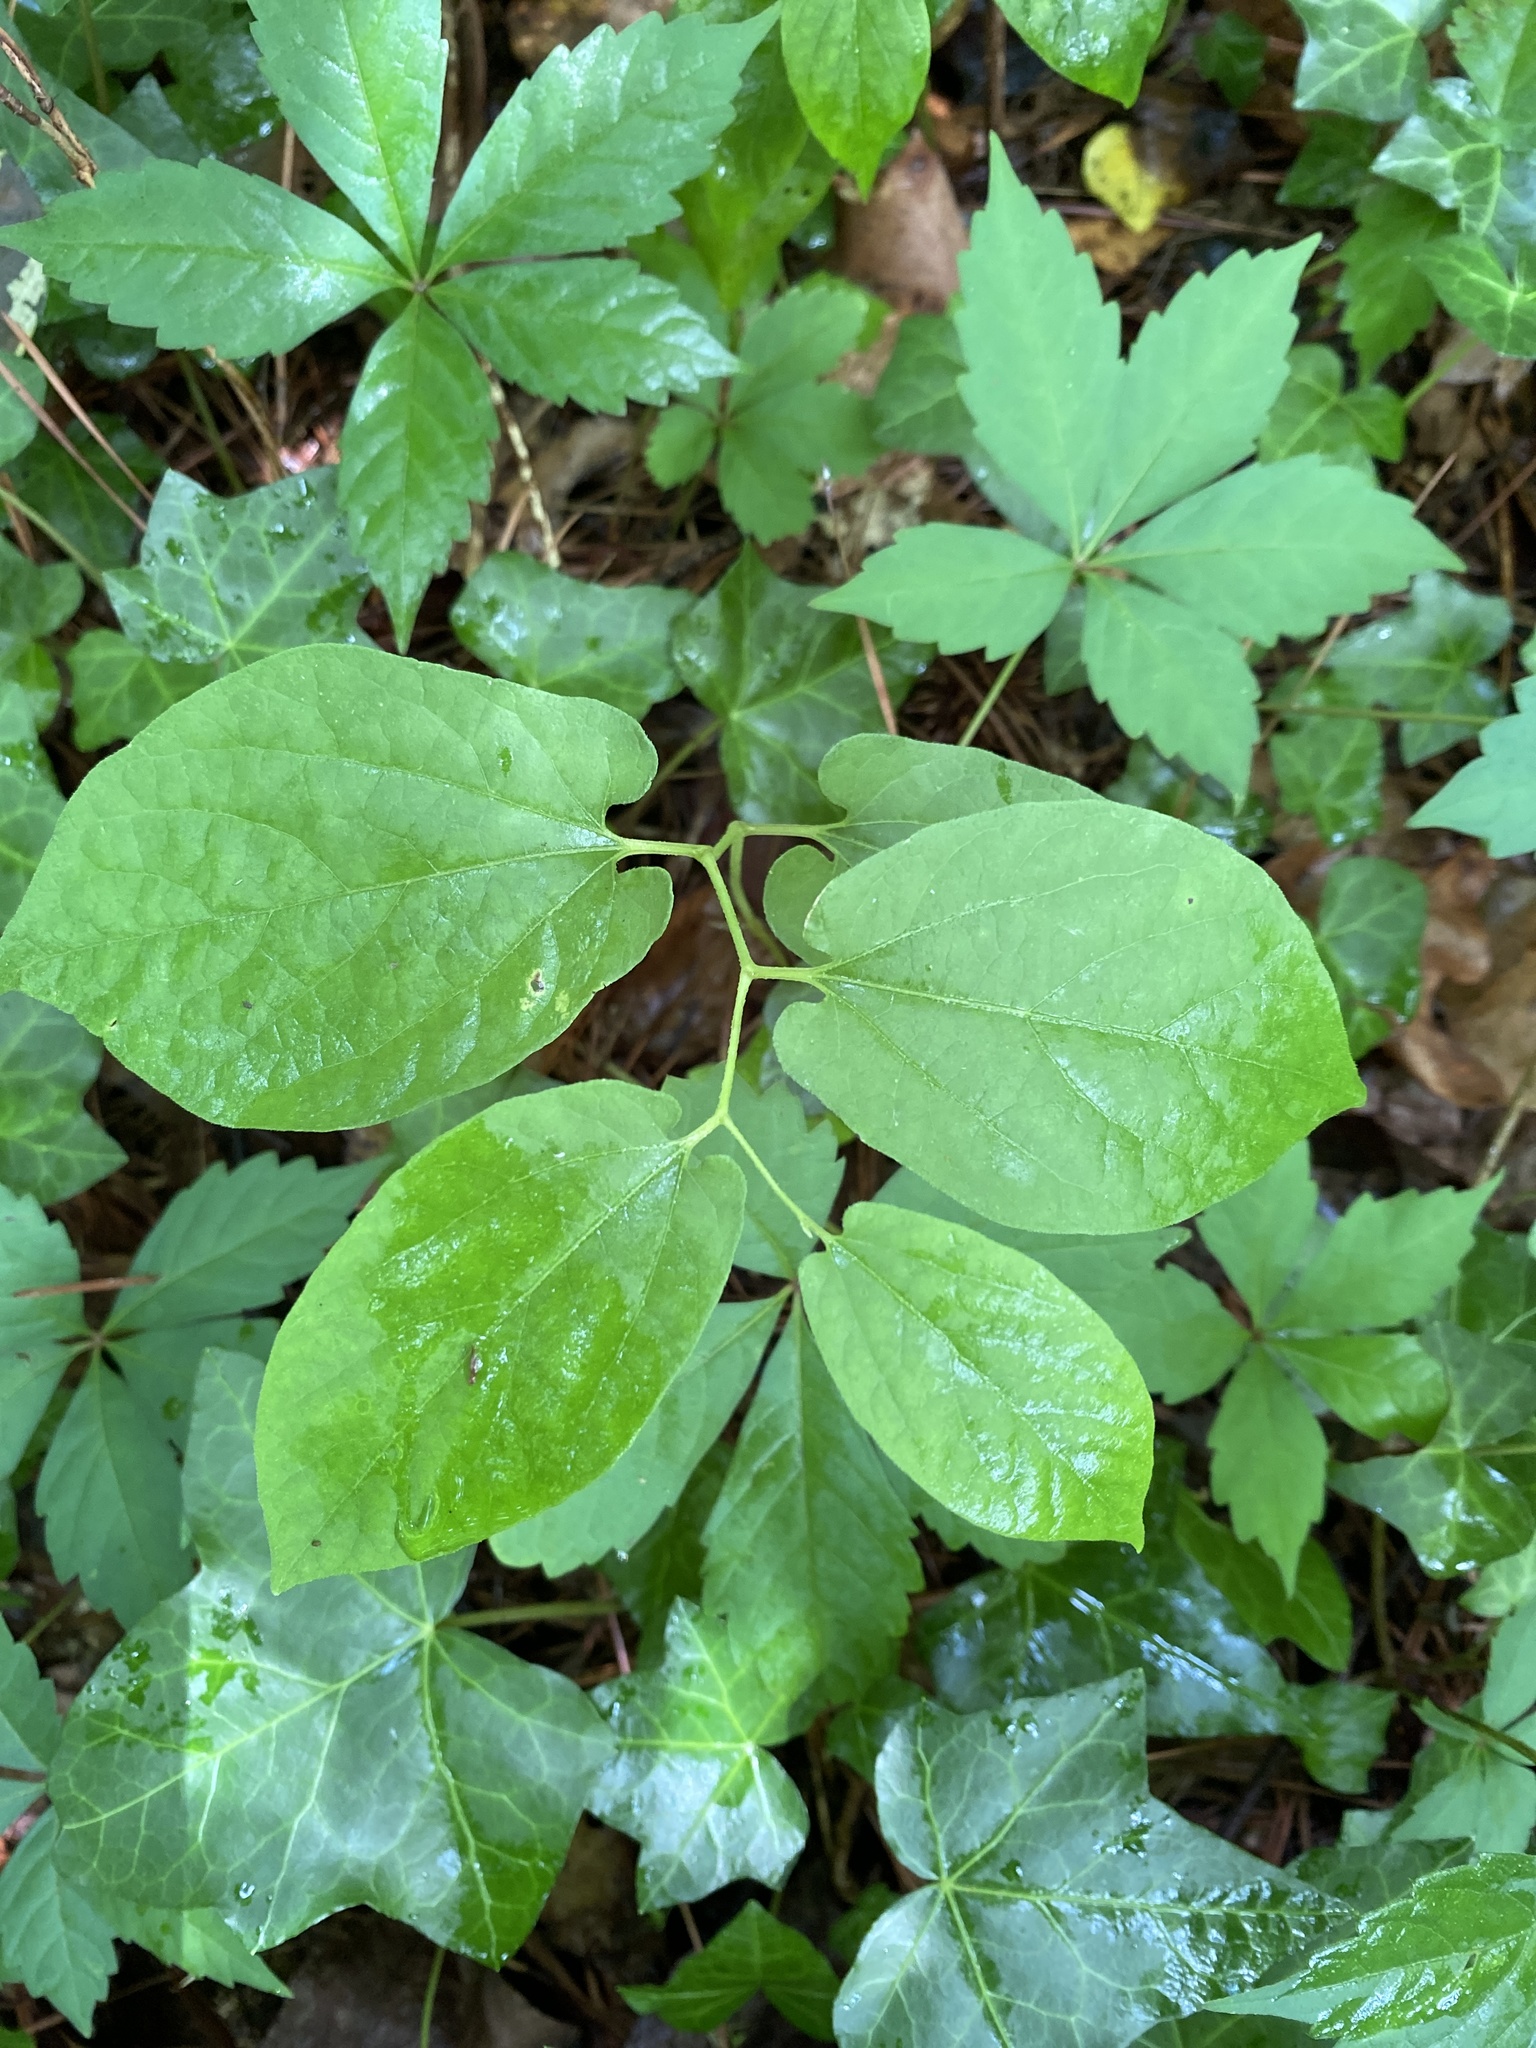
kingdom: Plantae
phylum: Tracheophyta
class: Magnoliopsida
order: Piperales
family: Aristolochiaceae
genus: Endodeca
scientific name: Endodeca serpentaria
